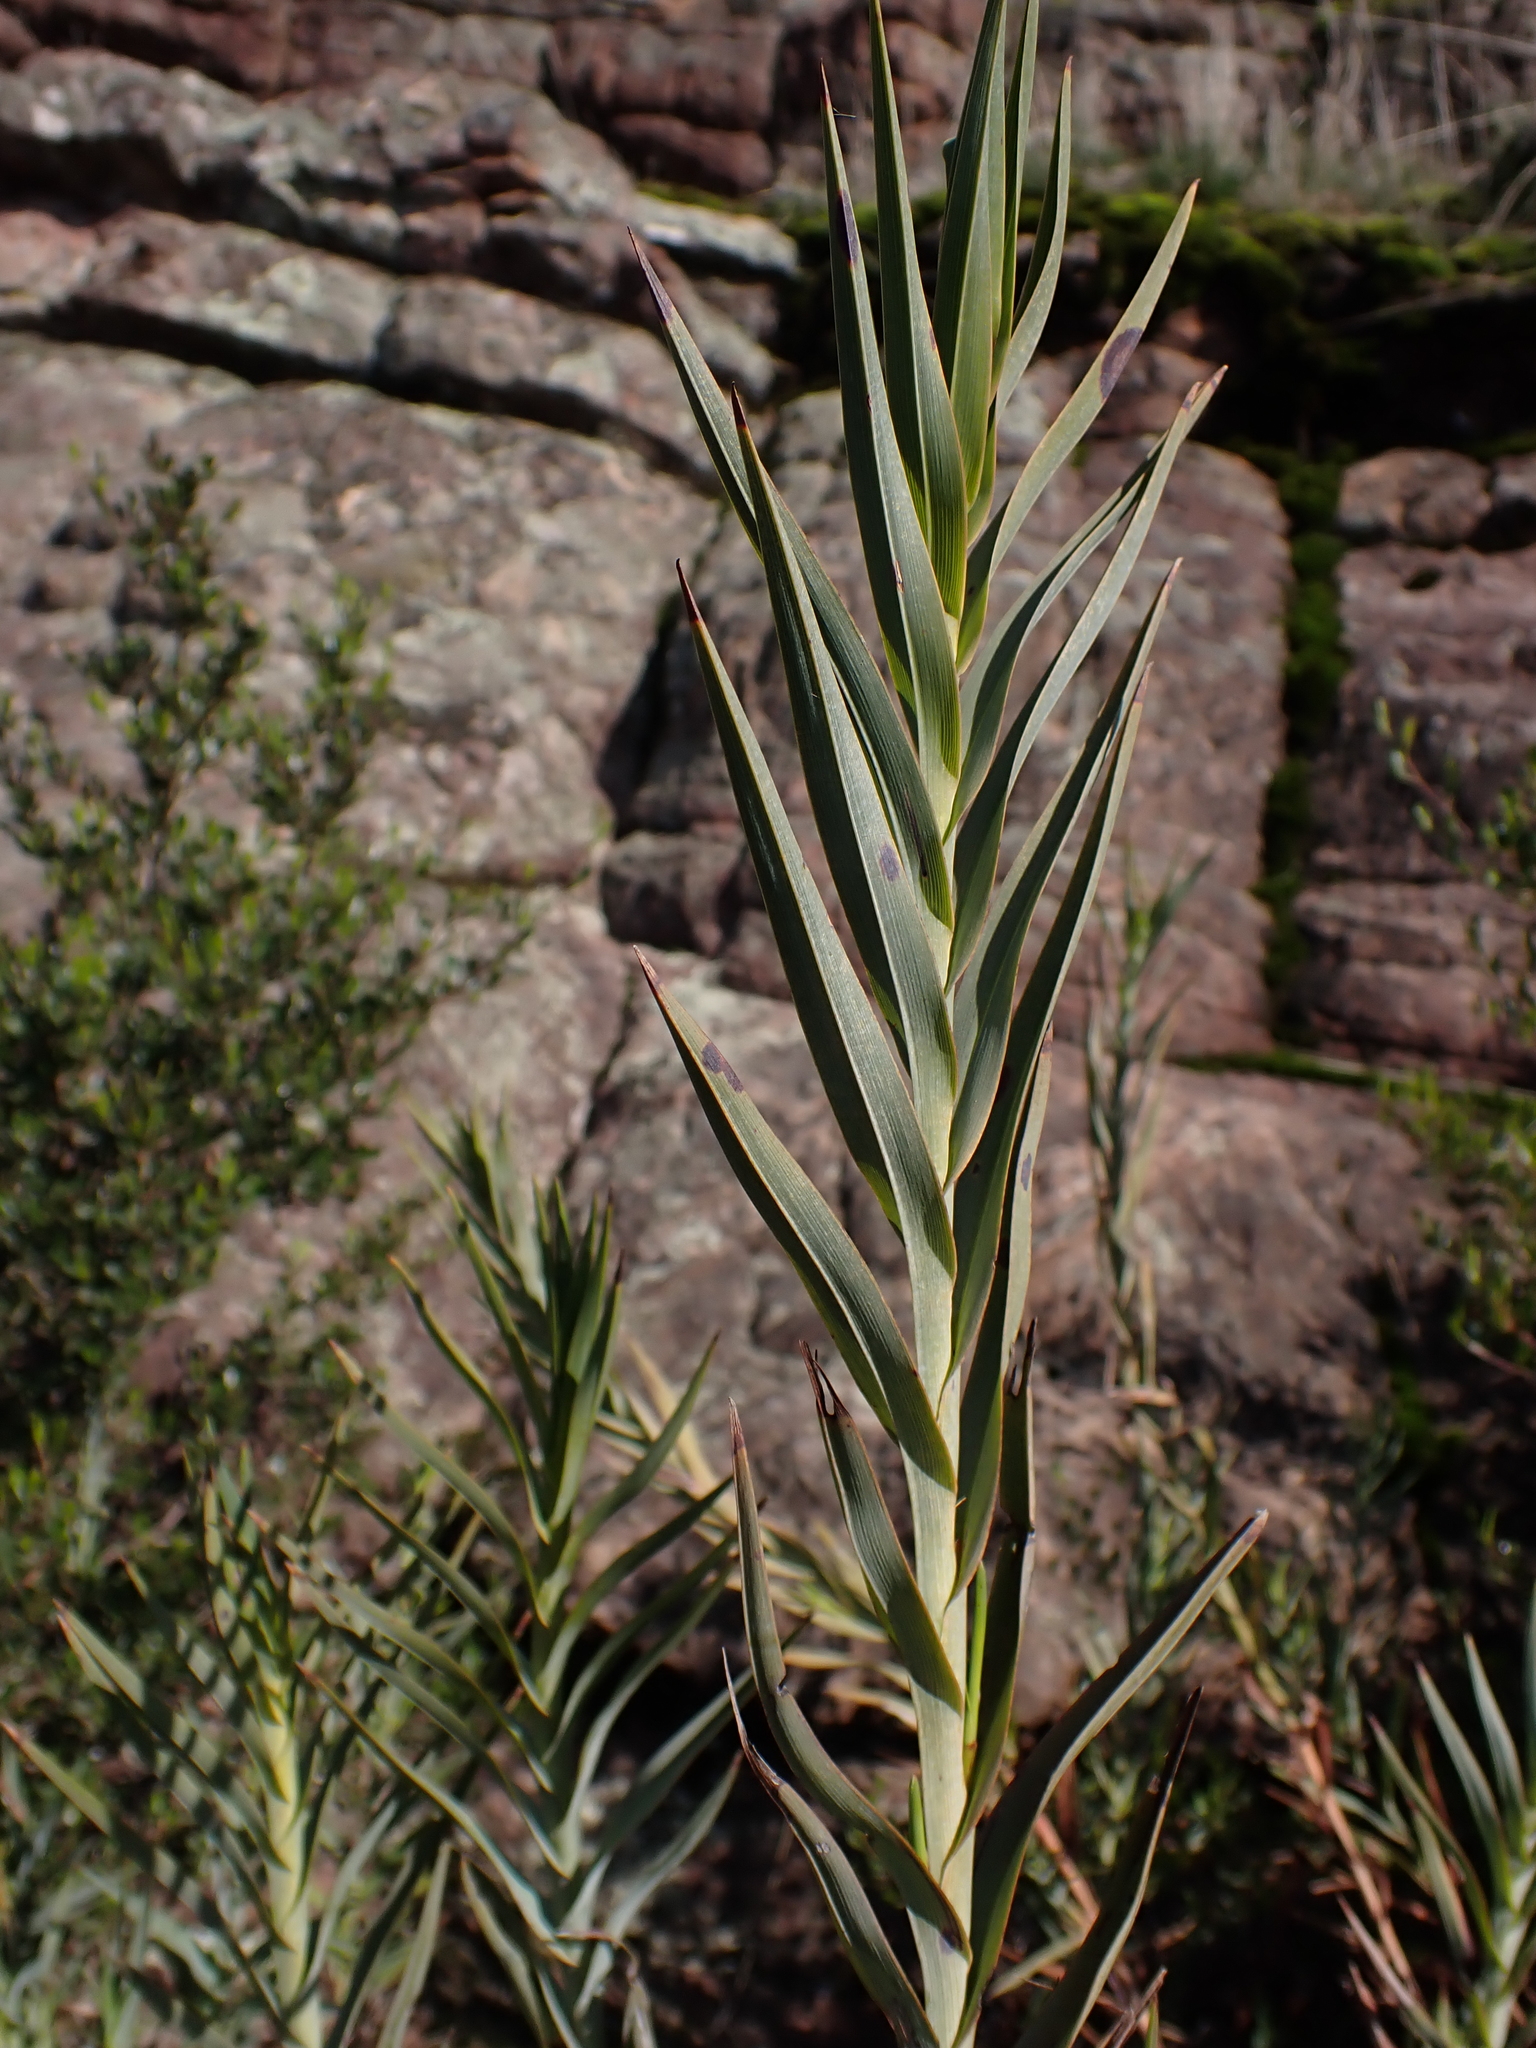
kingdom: Plantae
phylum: Tracheophyta
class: Liliopsida
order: Asparagales
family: Asphodelaceae
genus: Stypandra
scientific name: Stypandra glauca
